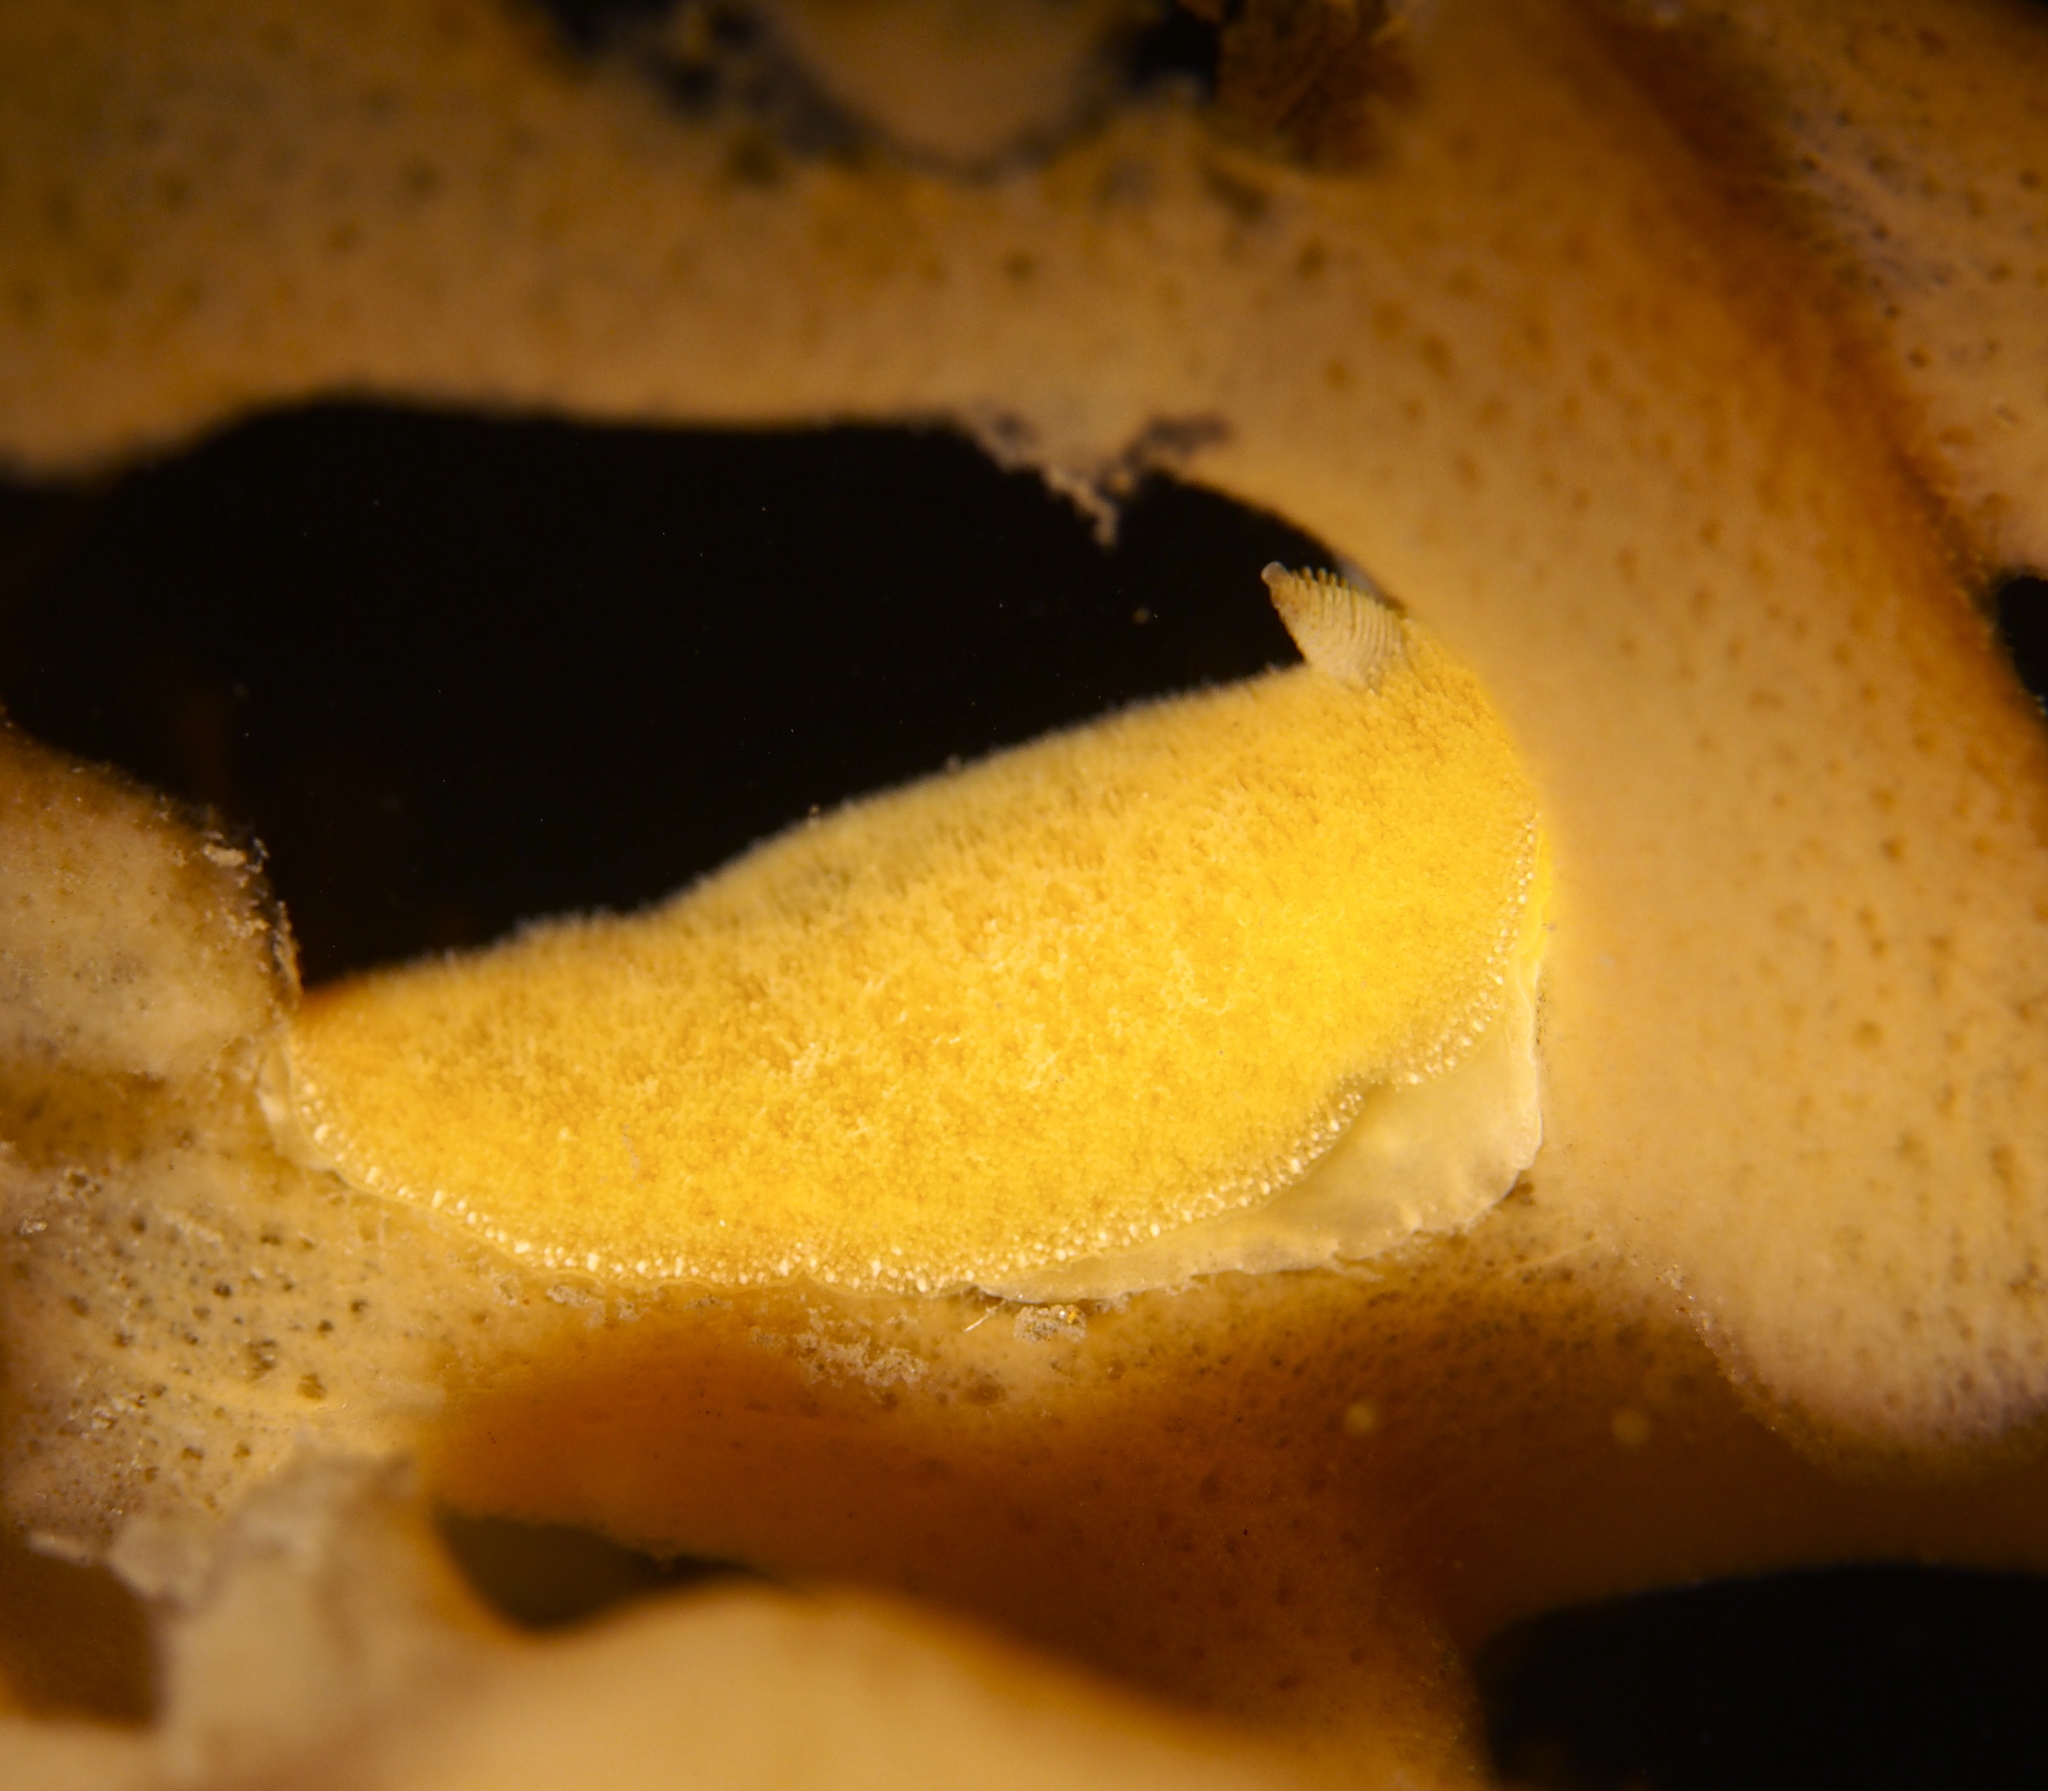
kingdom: Animalia
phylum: Mollusca
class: Gastropoda
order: Nudibranchia
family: Discodorididae
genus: Jorunna
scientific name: Jorunna tomentosa
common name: Grey sea slug
